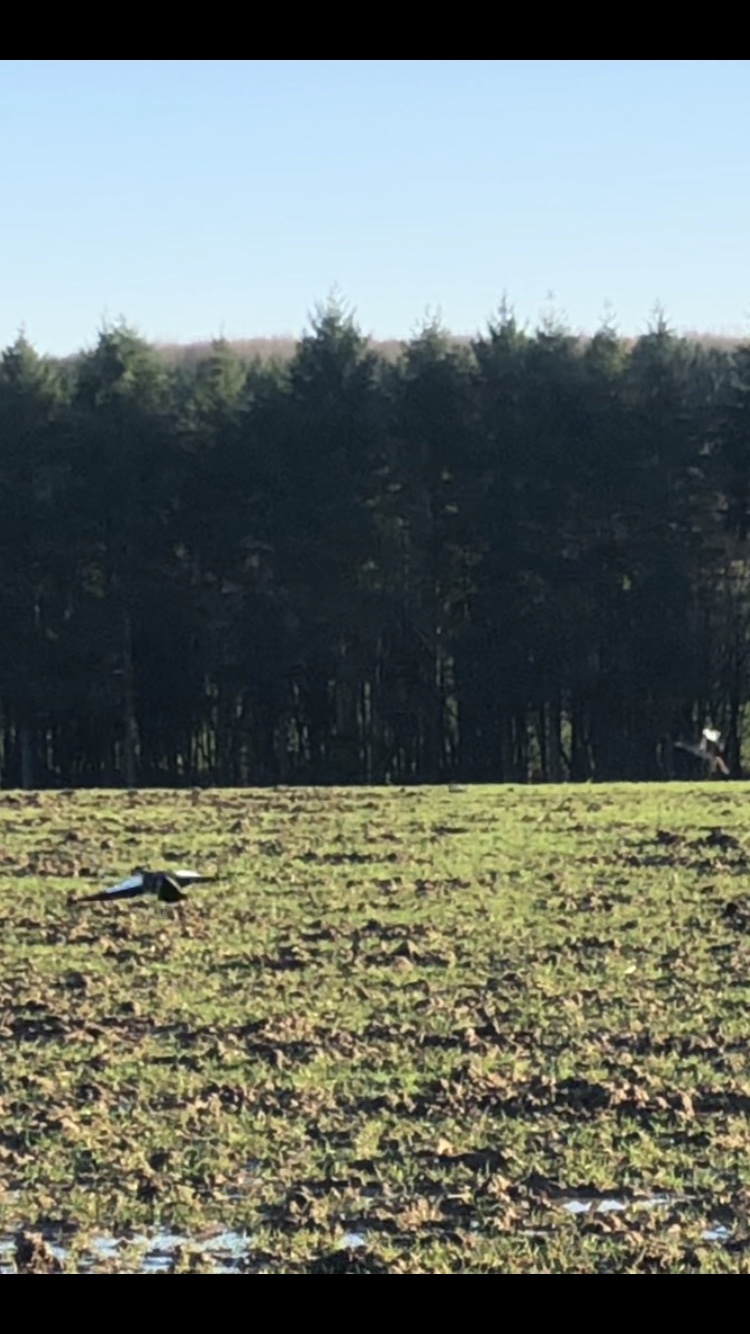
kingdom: Animalia
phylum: Chordata
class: Aves
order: Anseriformes
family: Anatidae
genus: Alopochen
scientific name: Alopochen aegyptiaca
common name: Egyptian goose
